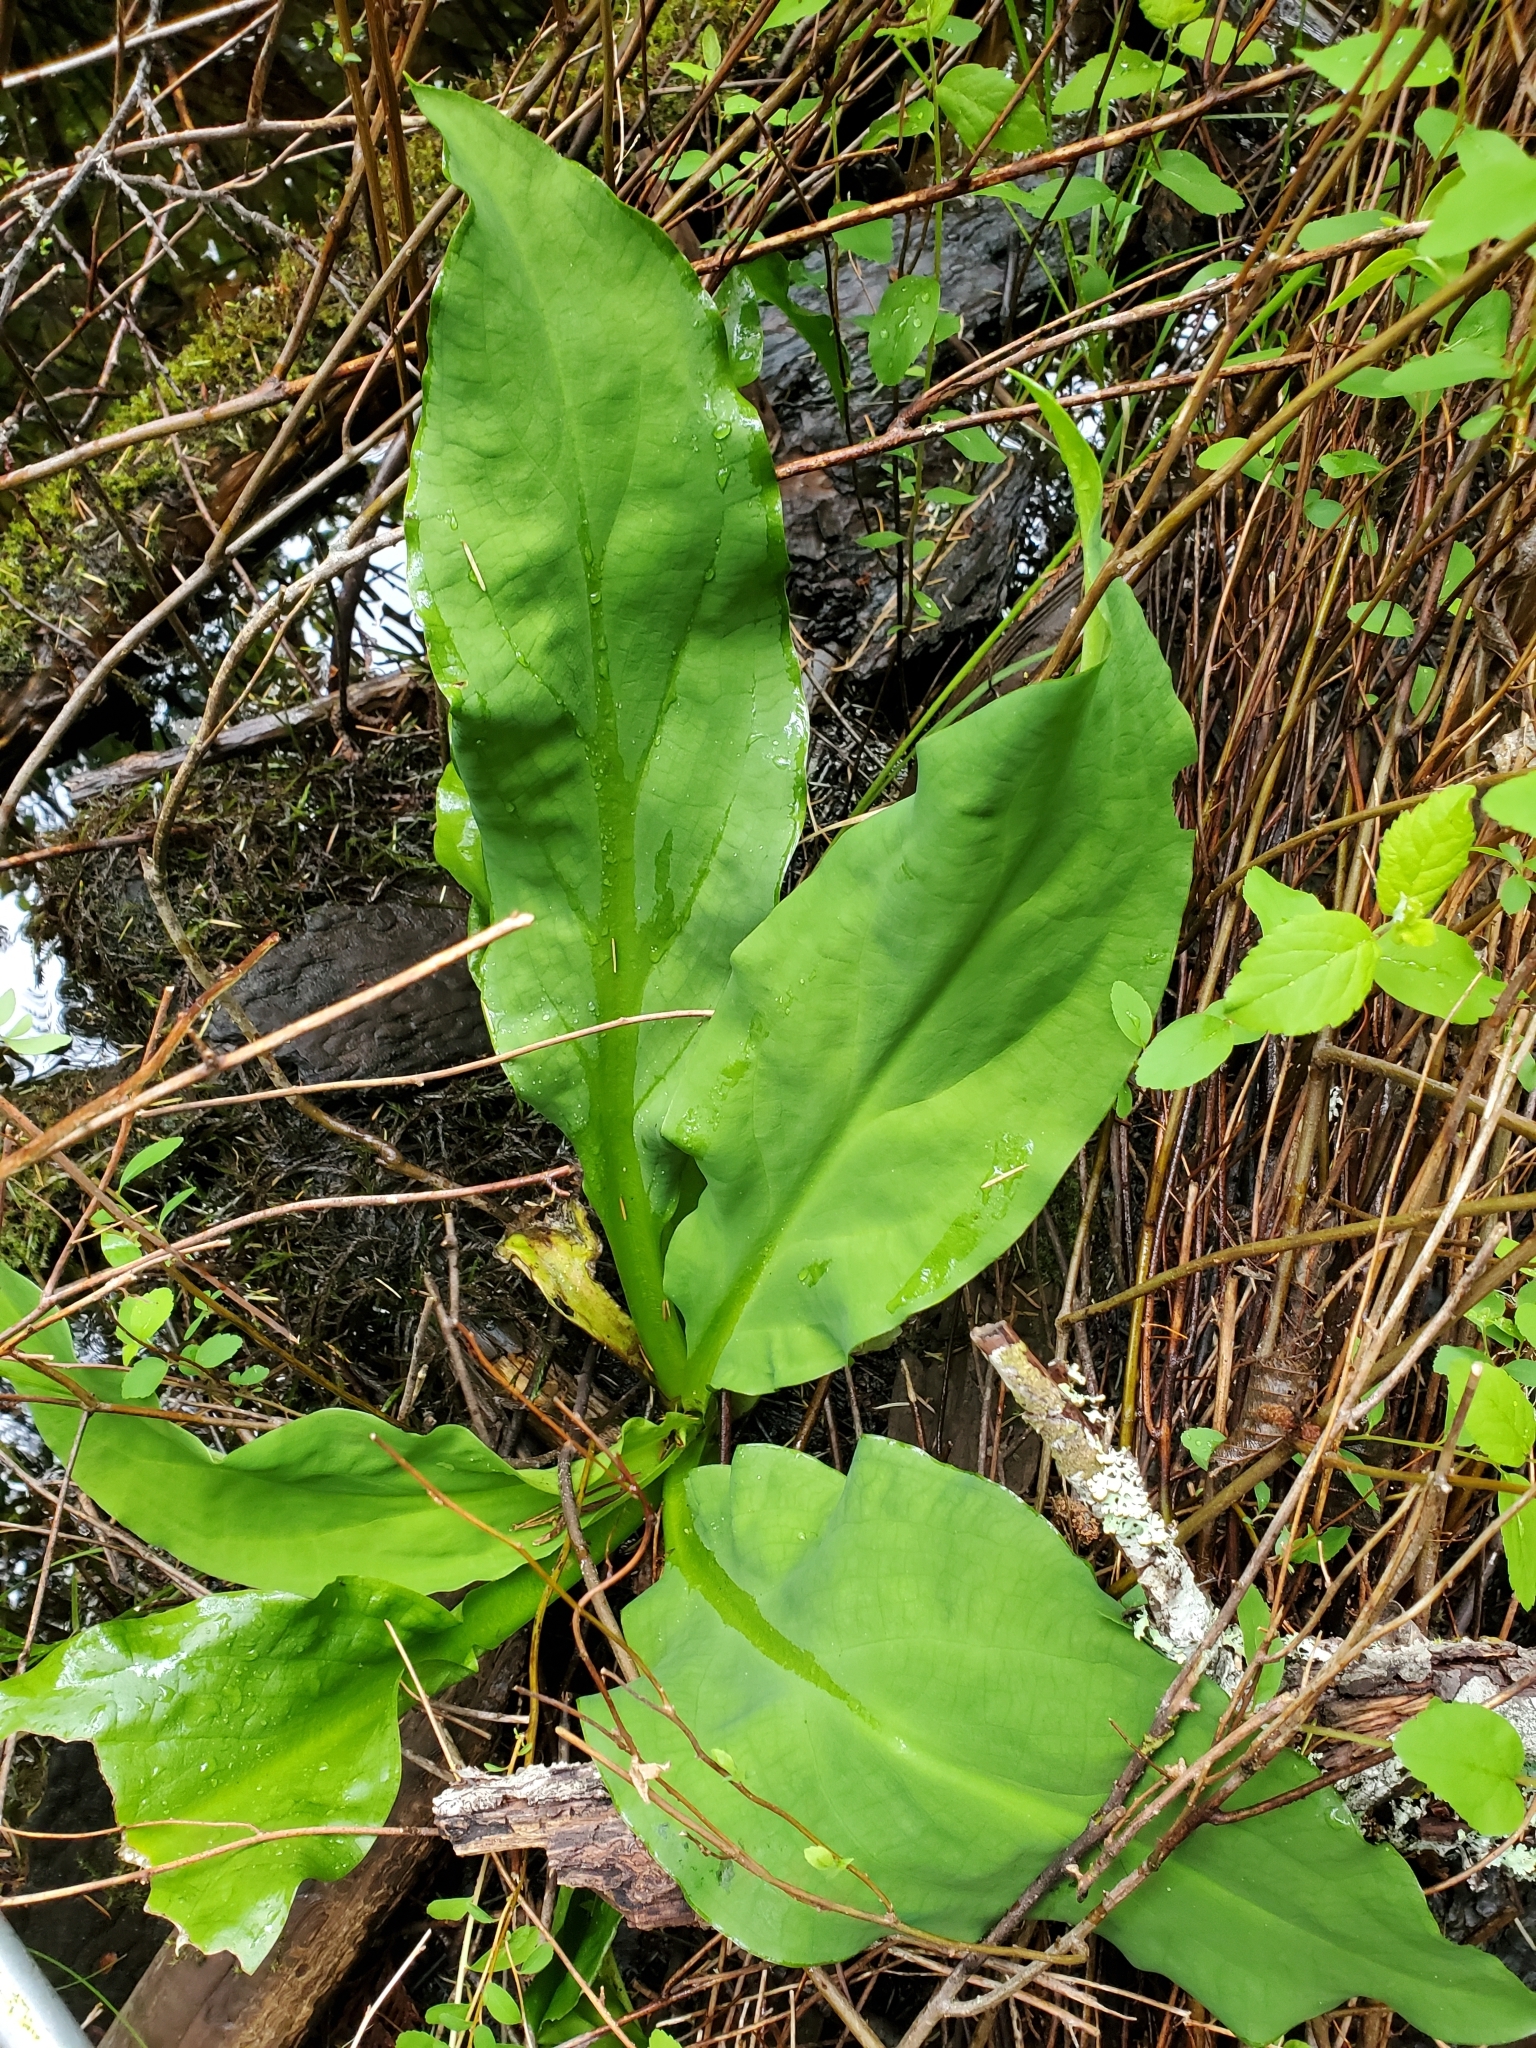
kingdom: Plantae
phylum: Tracheophyta
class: Liliopsida
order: Alismatales
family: Araceae
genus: Lysichiton
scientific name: Lysichiton americanus
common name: American skunk cabbage
